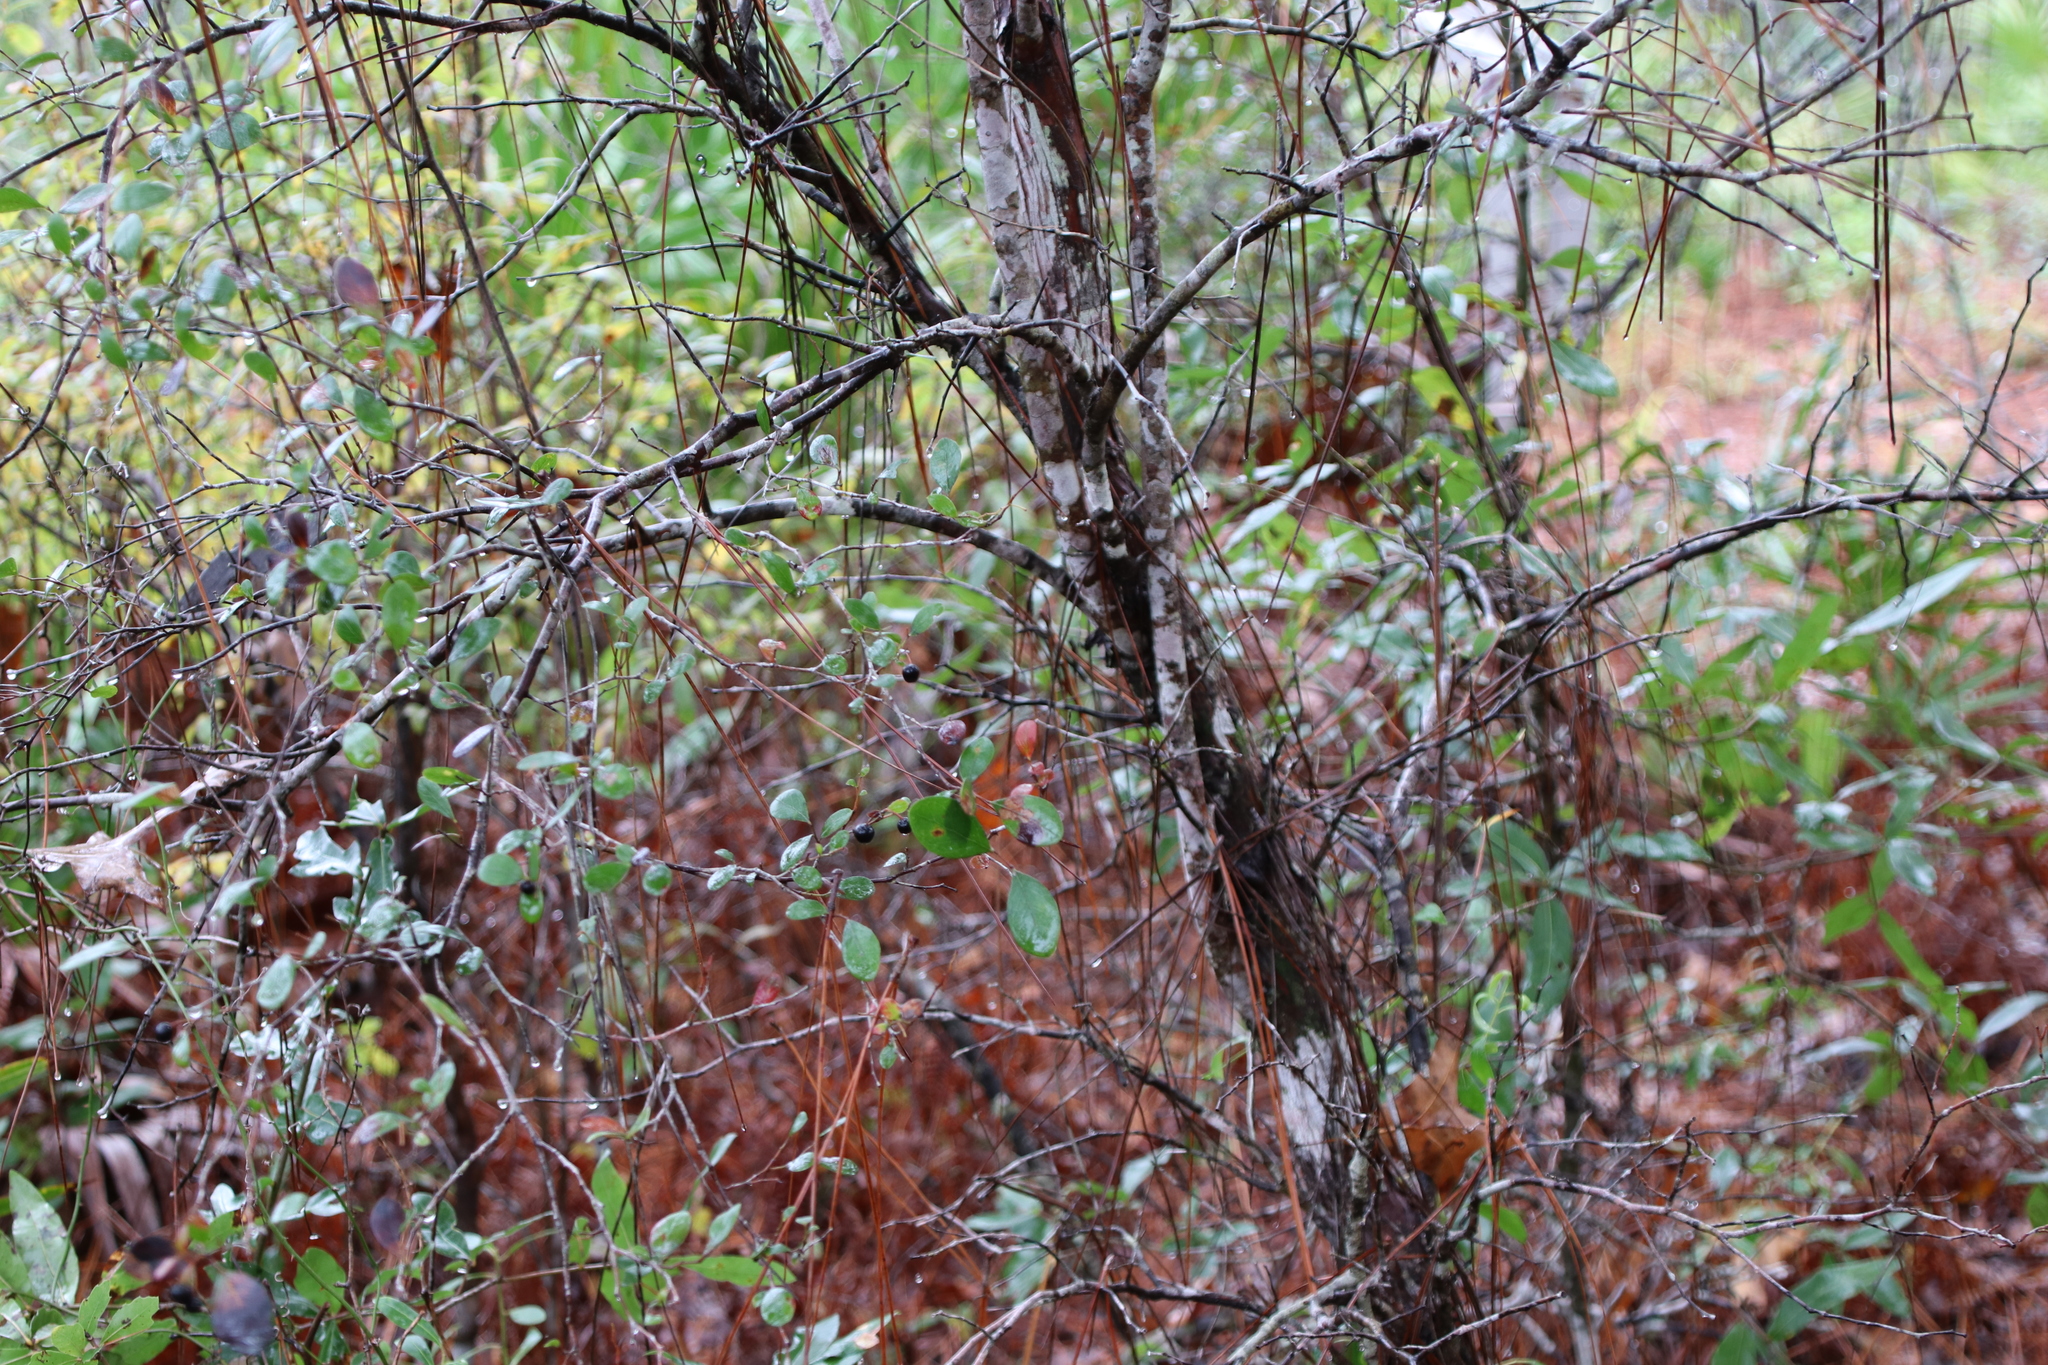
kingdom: Plantae
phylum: Tracheophyta
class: Magnoliopsida
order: Ericales
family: Ericaceae
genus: Vaccinium
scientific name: Vaccinium arboreum
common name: Farkleberry
